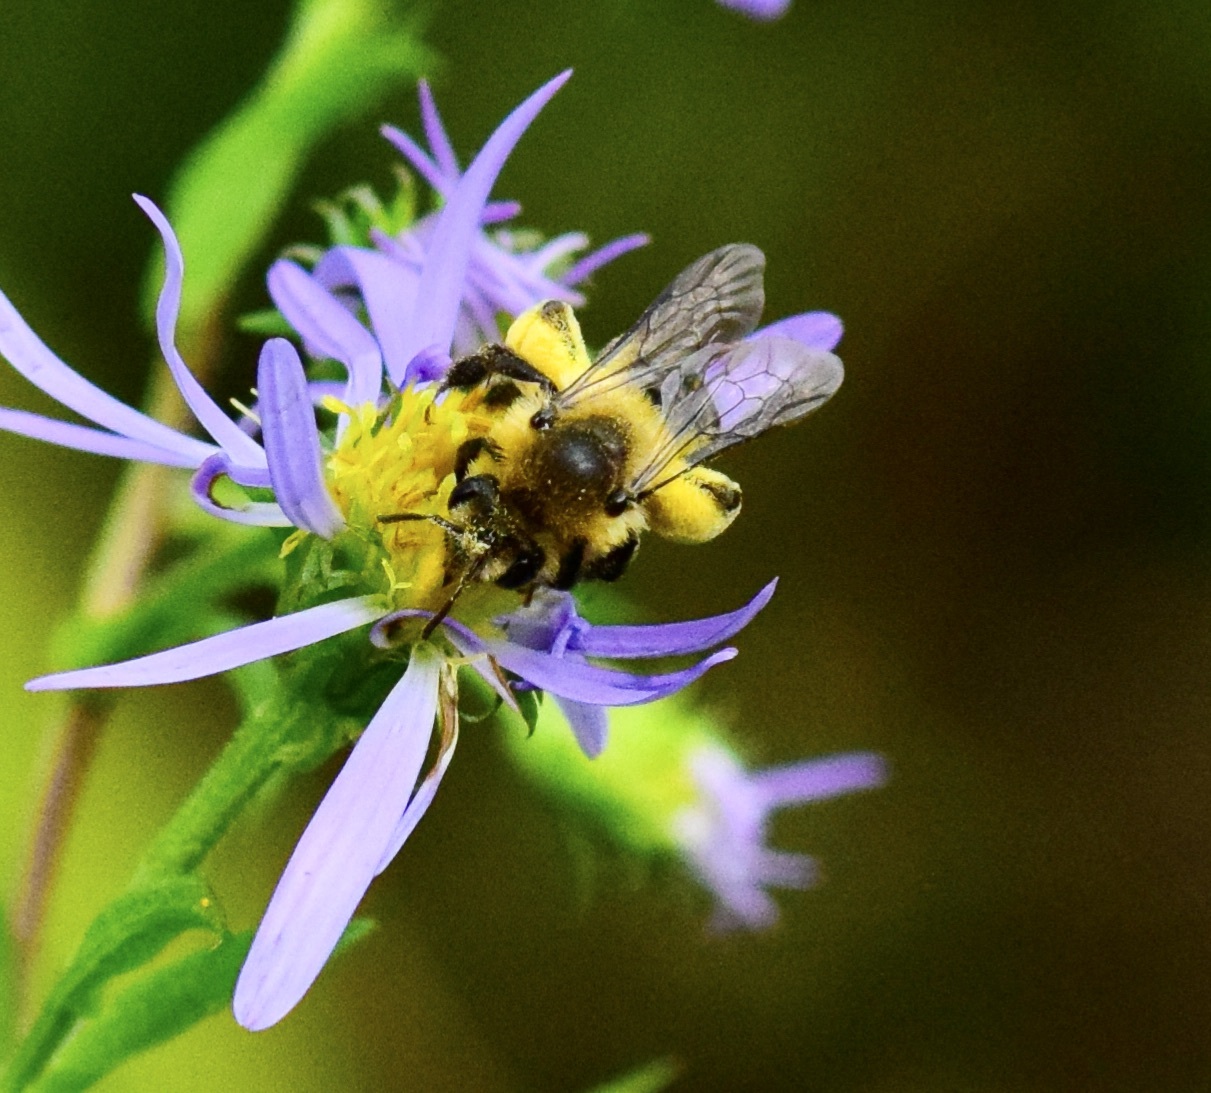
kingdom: Animalia
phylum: Arthropoda
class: Insecta
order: Hymenoptera
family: Andrenidae
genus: Andrena
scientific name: Andrena asteris
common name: Aster mining bee
